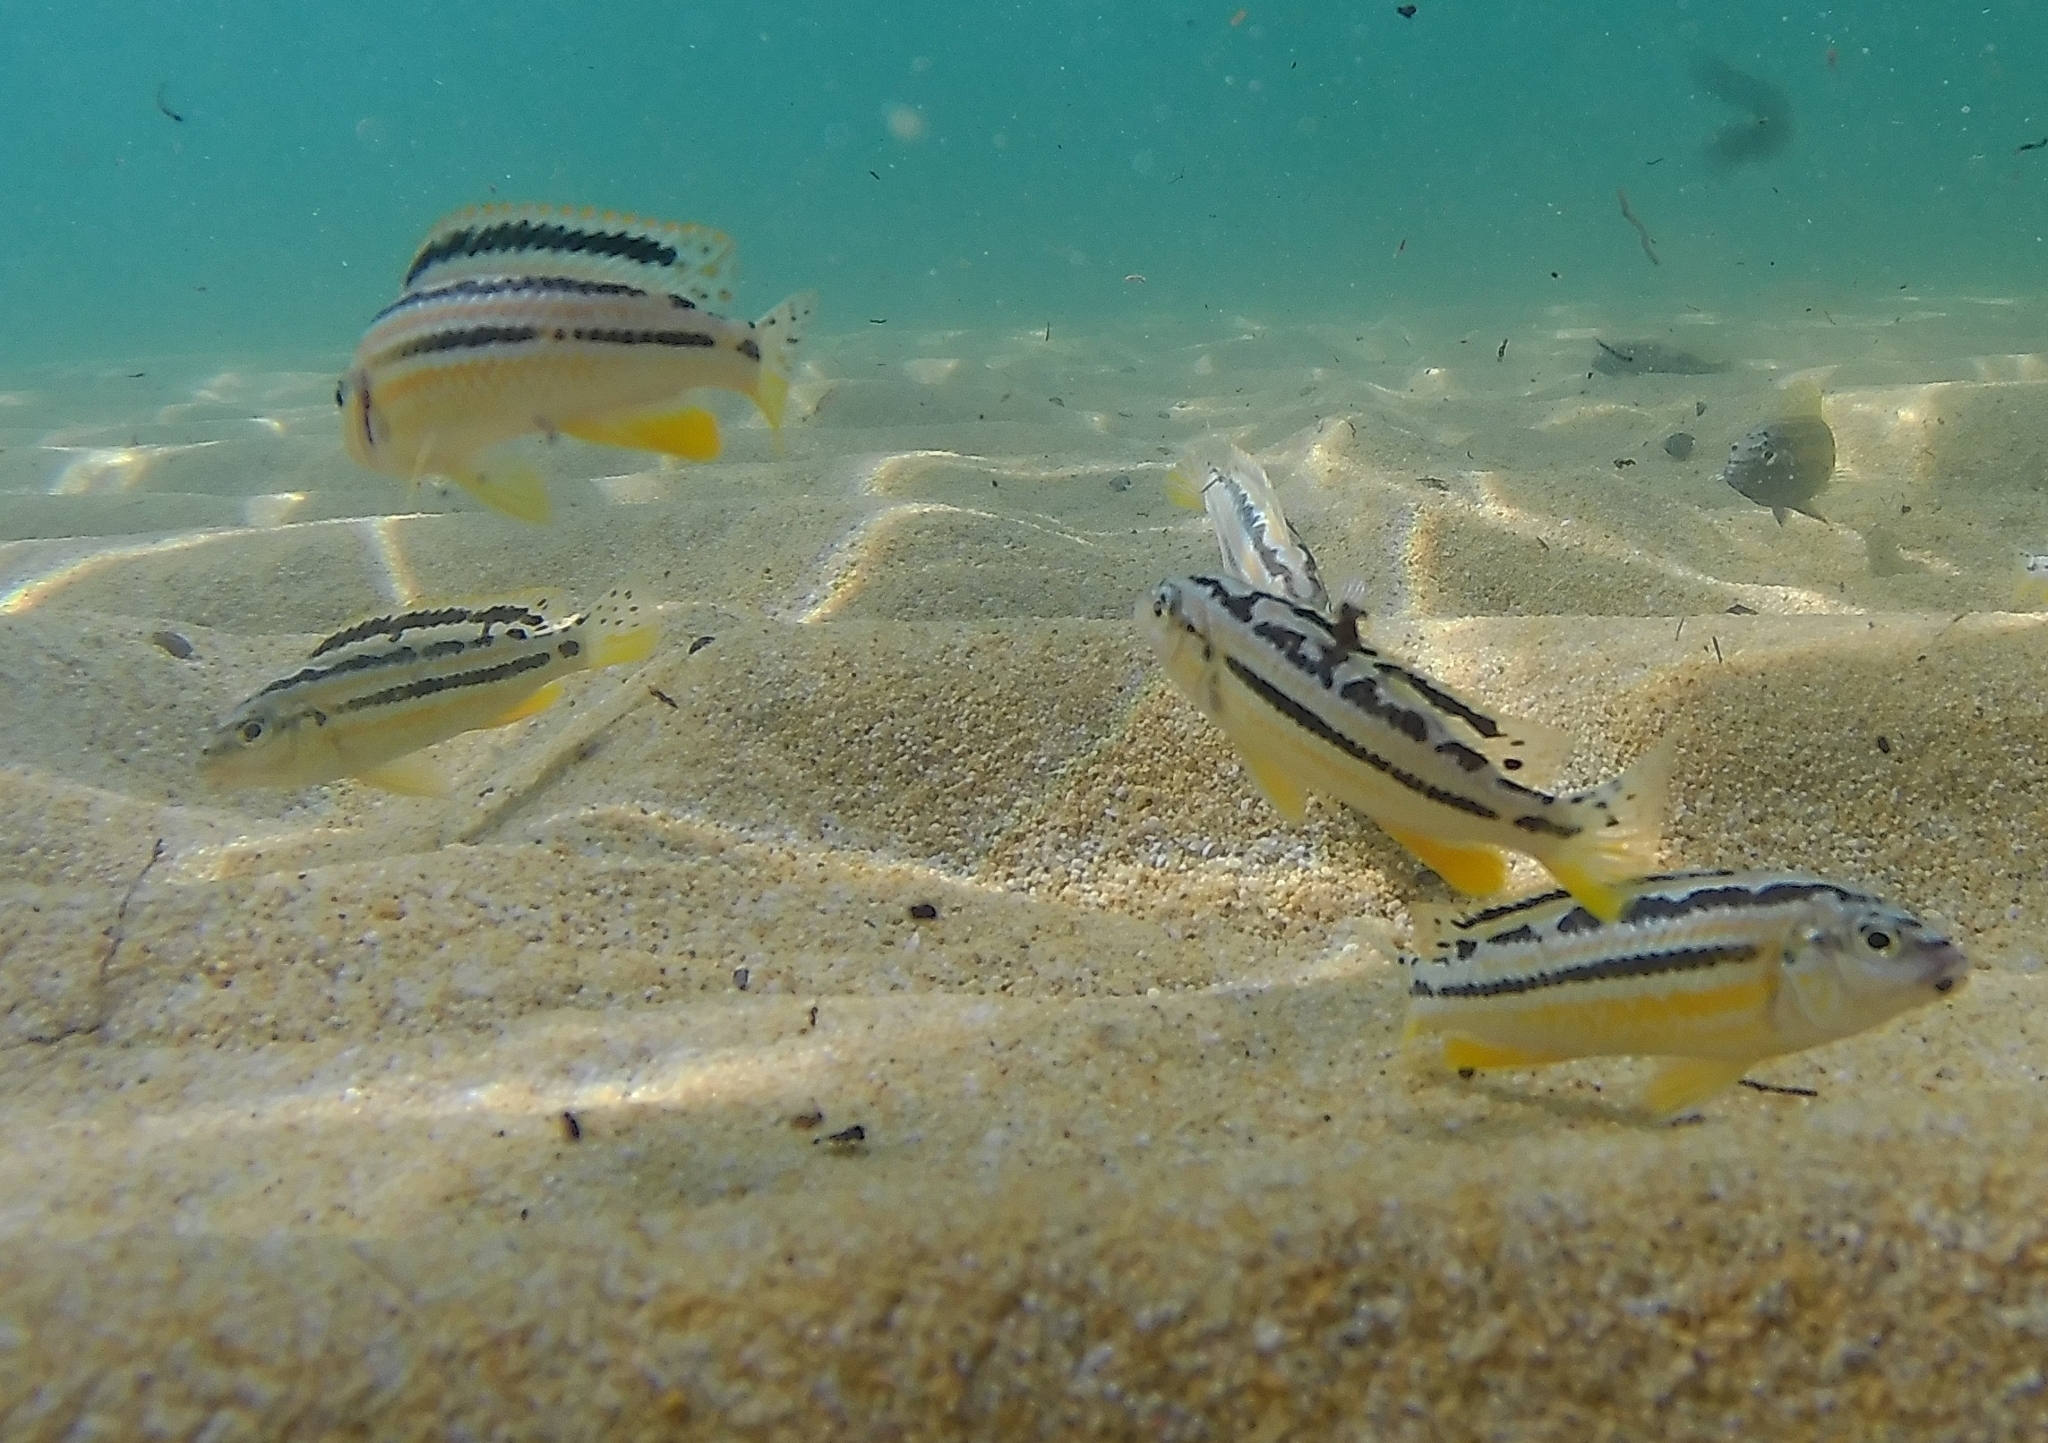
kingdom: Animalia
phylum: Chordata
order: Perciformes
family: Cichlidae
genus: Melanochromis
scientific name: Melanochromis auratus
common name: Golden mbuna
